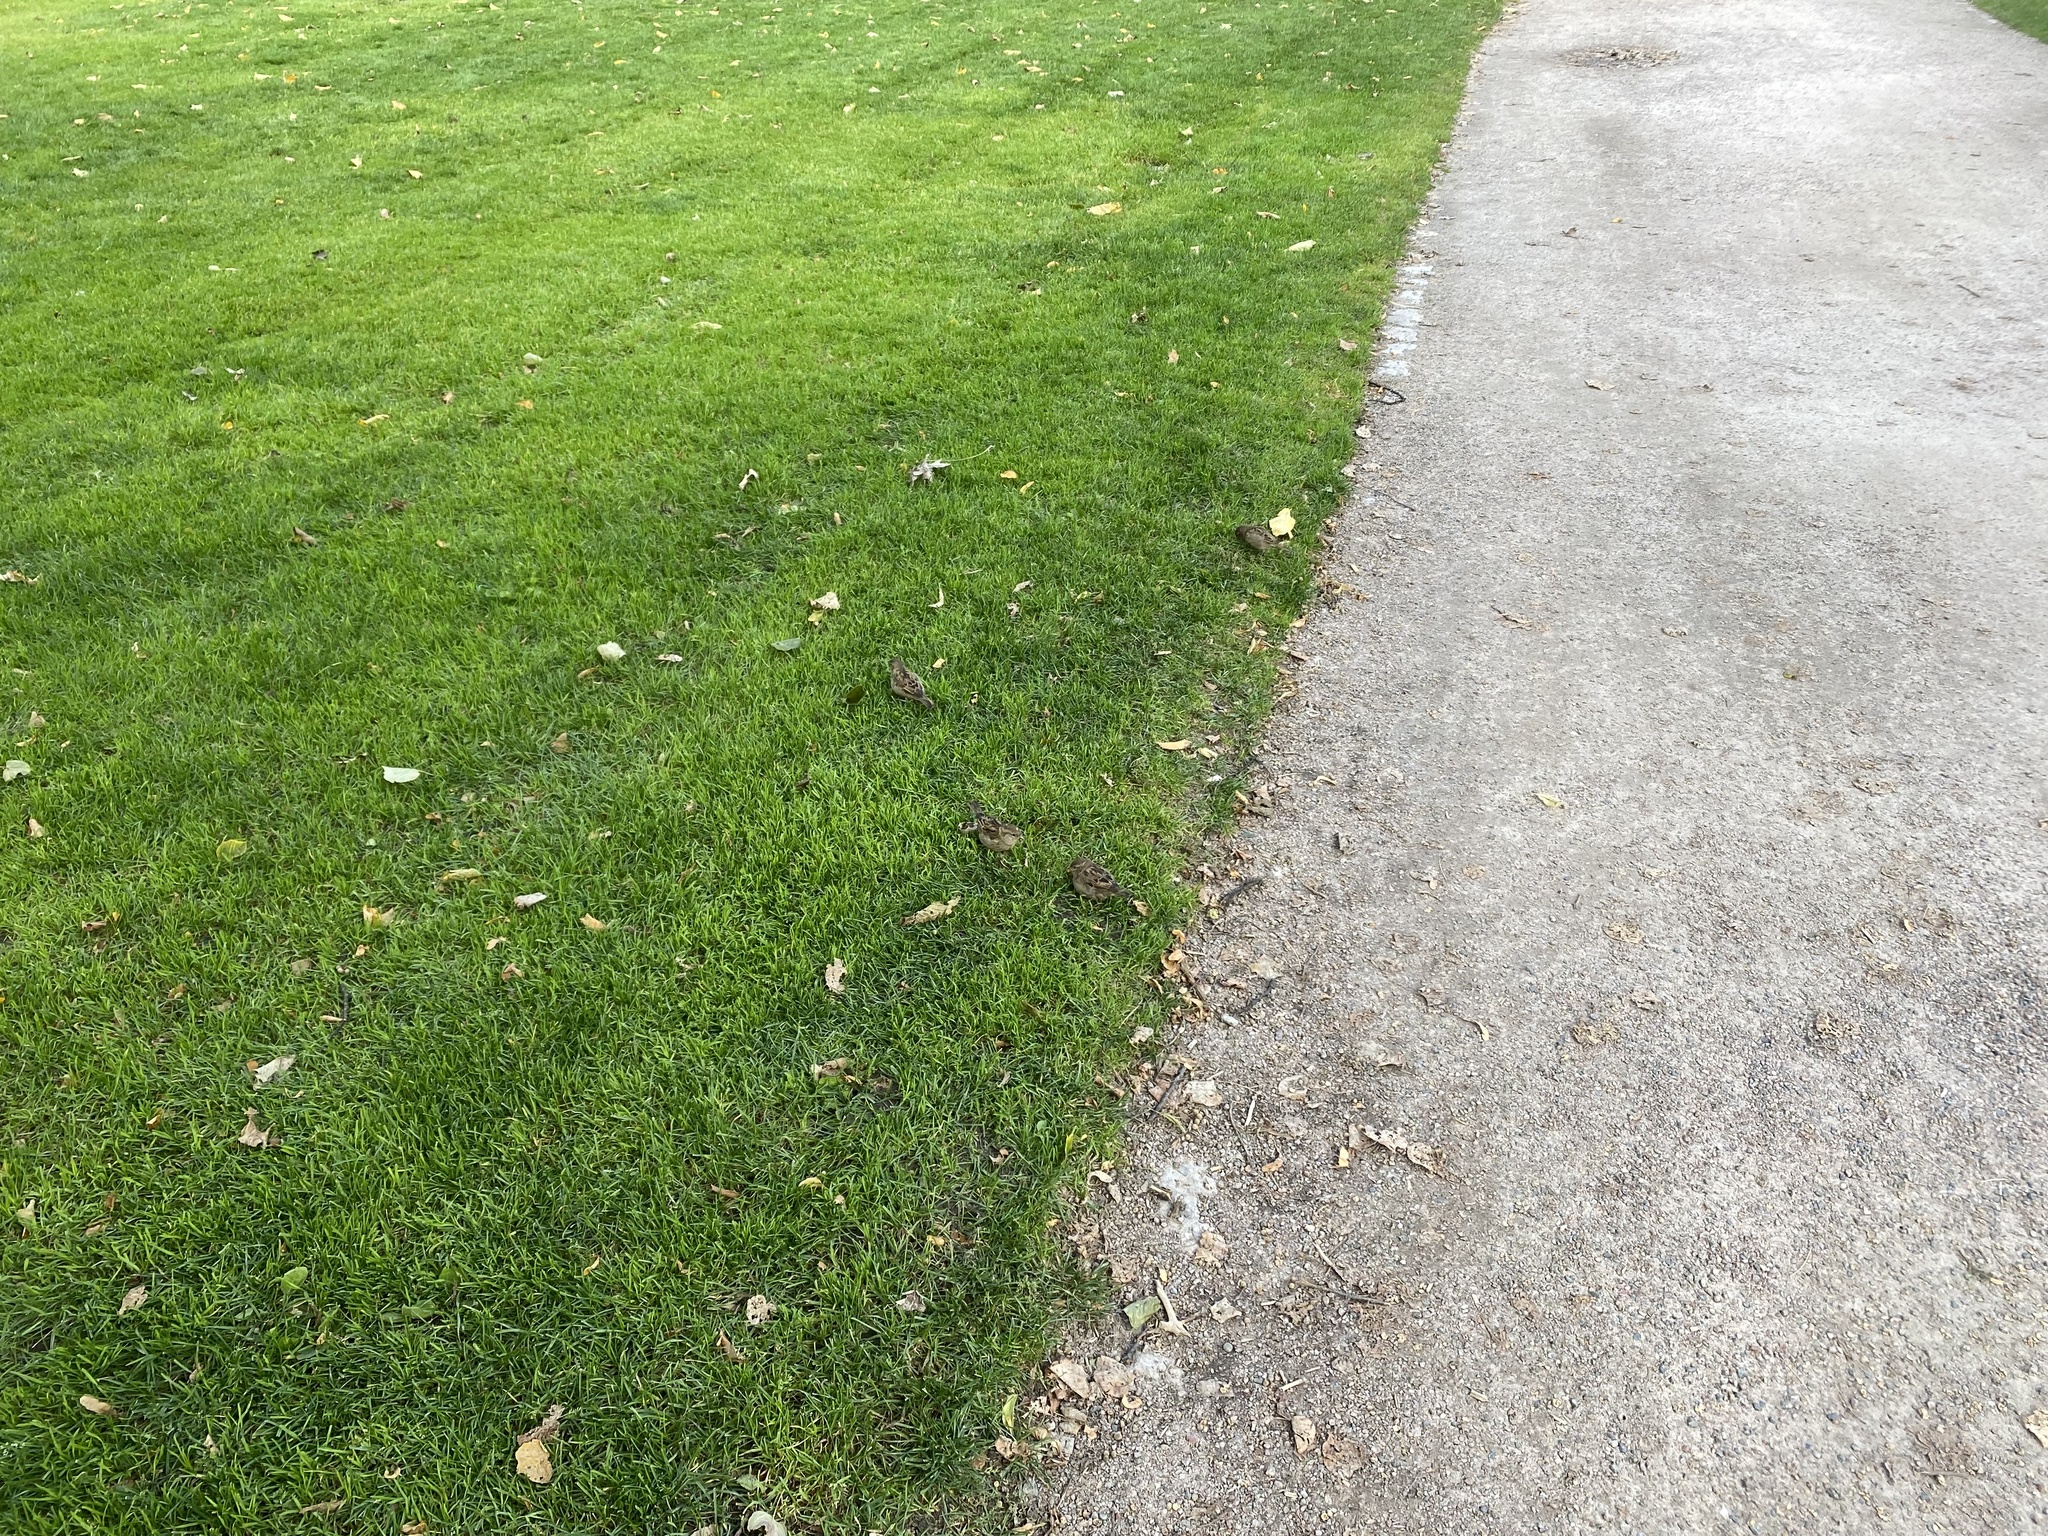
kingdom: Animalia
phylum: Chordata
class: Aves
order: Passeriformes
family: Passeridae
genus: Passer
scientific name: Passer domesticus
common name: House sparrow
